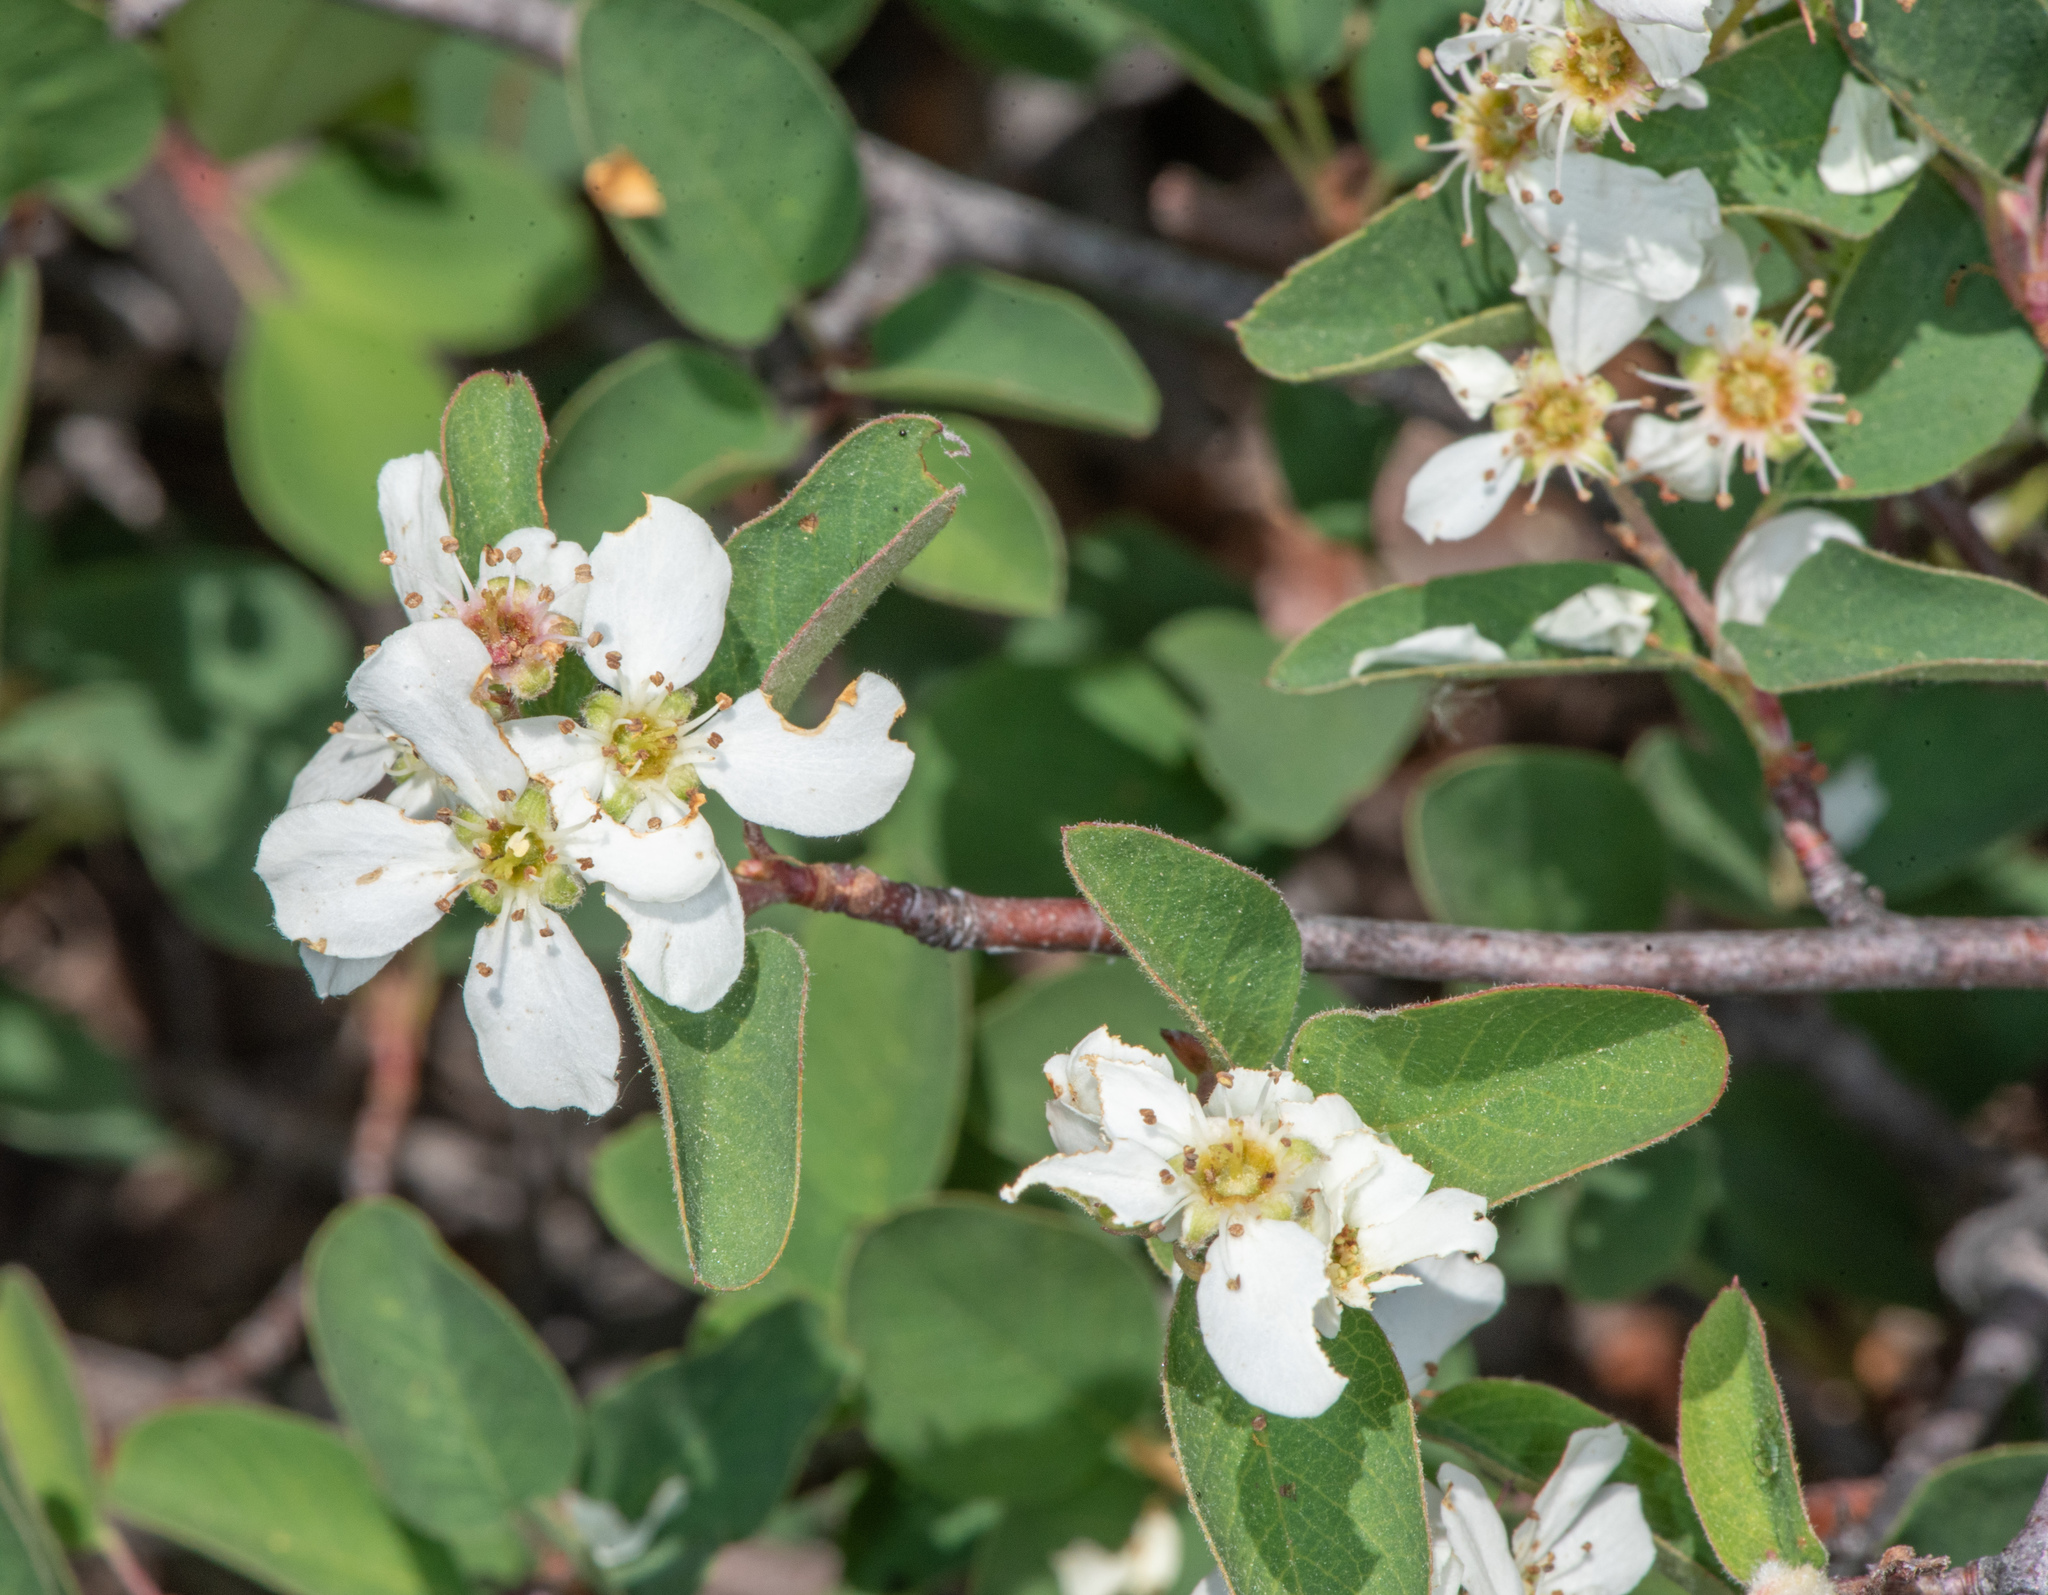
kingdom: Plantae
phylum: Tracheophyta
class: Magnoliopsida
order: Rosales
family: Rosaceae
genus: Amelanchier
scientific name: Amelanchier utahensis
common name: Utah serviceberry
